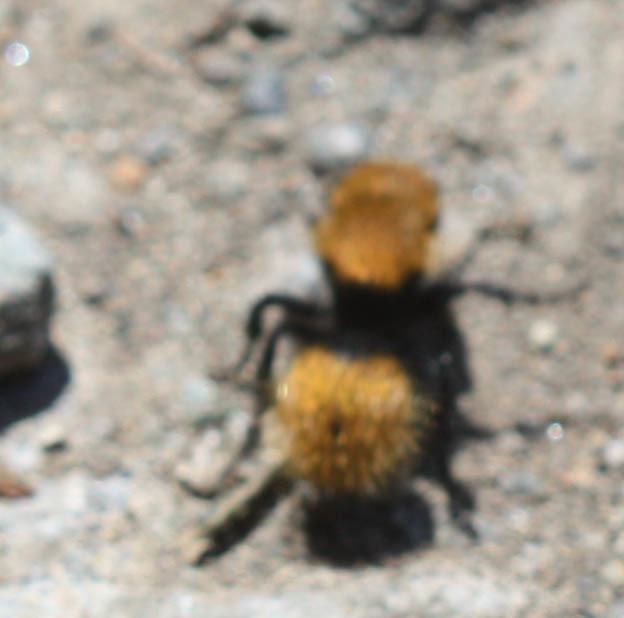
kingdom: Animalia
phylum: Arthropoda
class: Insecta
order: Hymenoptera
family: Mutillidae
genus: Dasymutilla
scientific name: Dasymutilla
